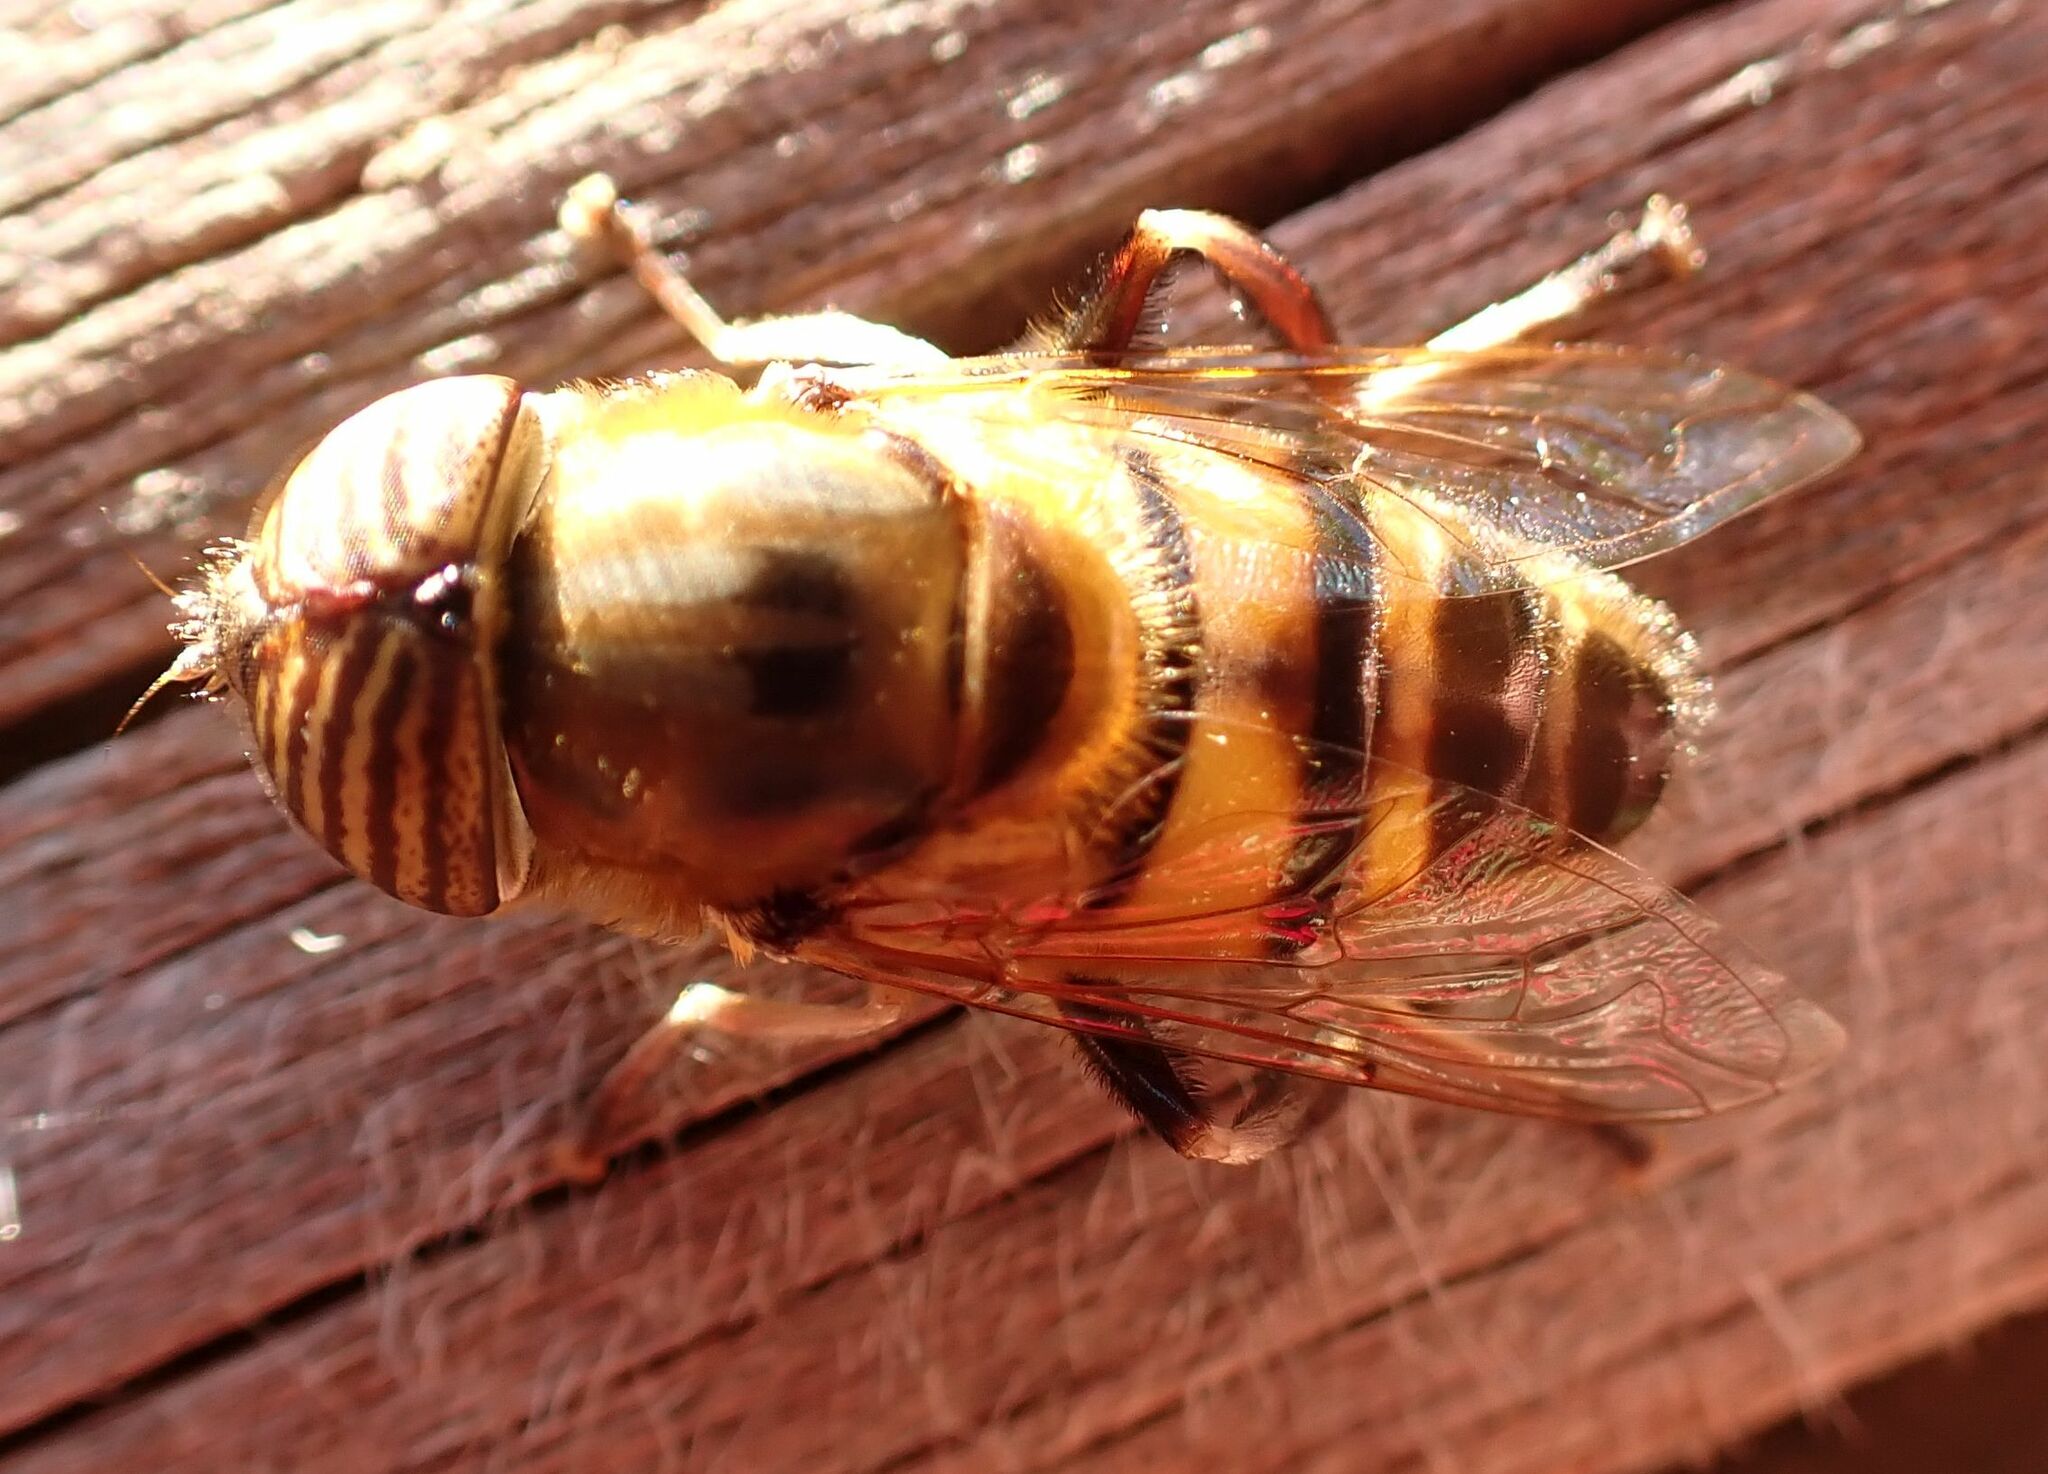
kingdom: Animalia
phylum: Arthropoda
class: Insecta
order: Diptera
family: Syrphidae
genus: Eristalinus
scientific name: Eristalinus taeniops
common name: Syrphid fly
